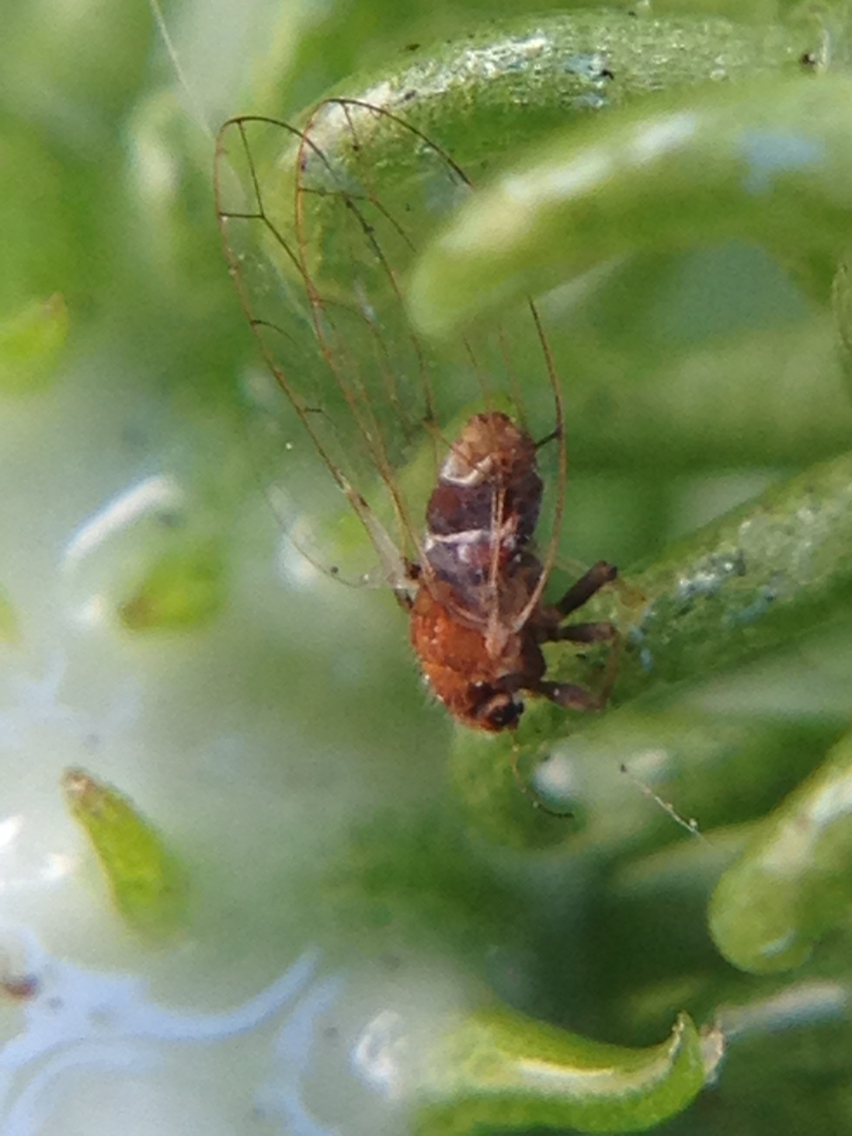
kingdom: Animalia
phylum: Arthropoda
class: Insecta
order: Hemiptera
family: Triozidae
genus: Trioza
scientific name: Trioza adventicia
